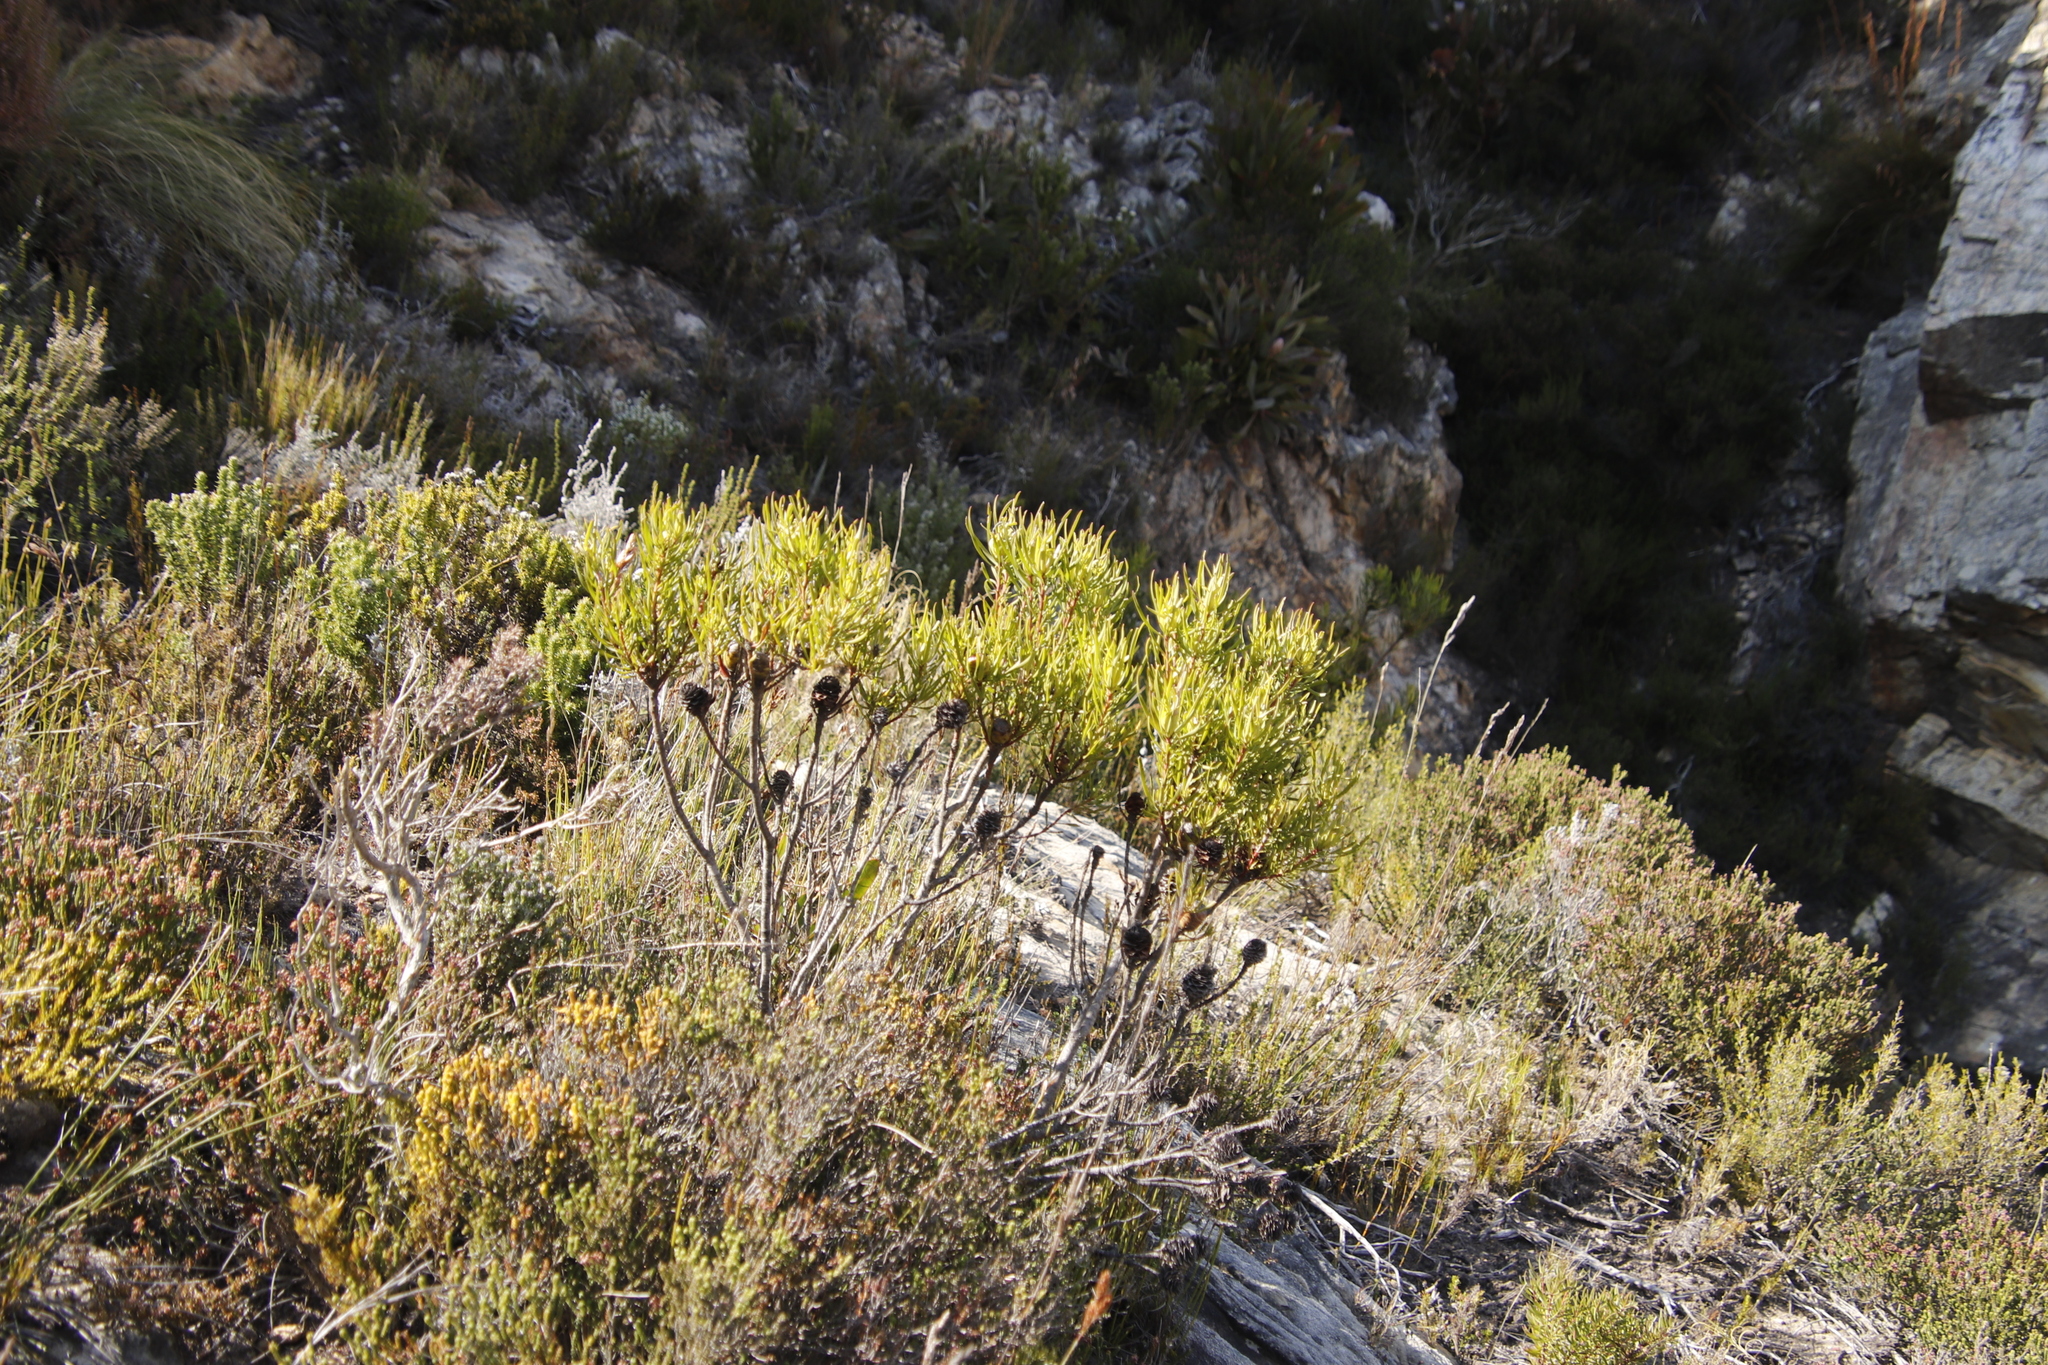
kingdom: Plantae
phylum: Tracheophyta
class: Magnoliopsida
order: Proteales
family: Proteaceae
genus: Leucadendron
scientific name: Leucadendron spissifolium
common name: Spear-leaf conebush
